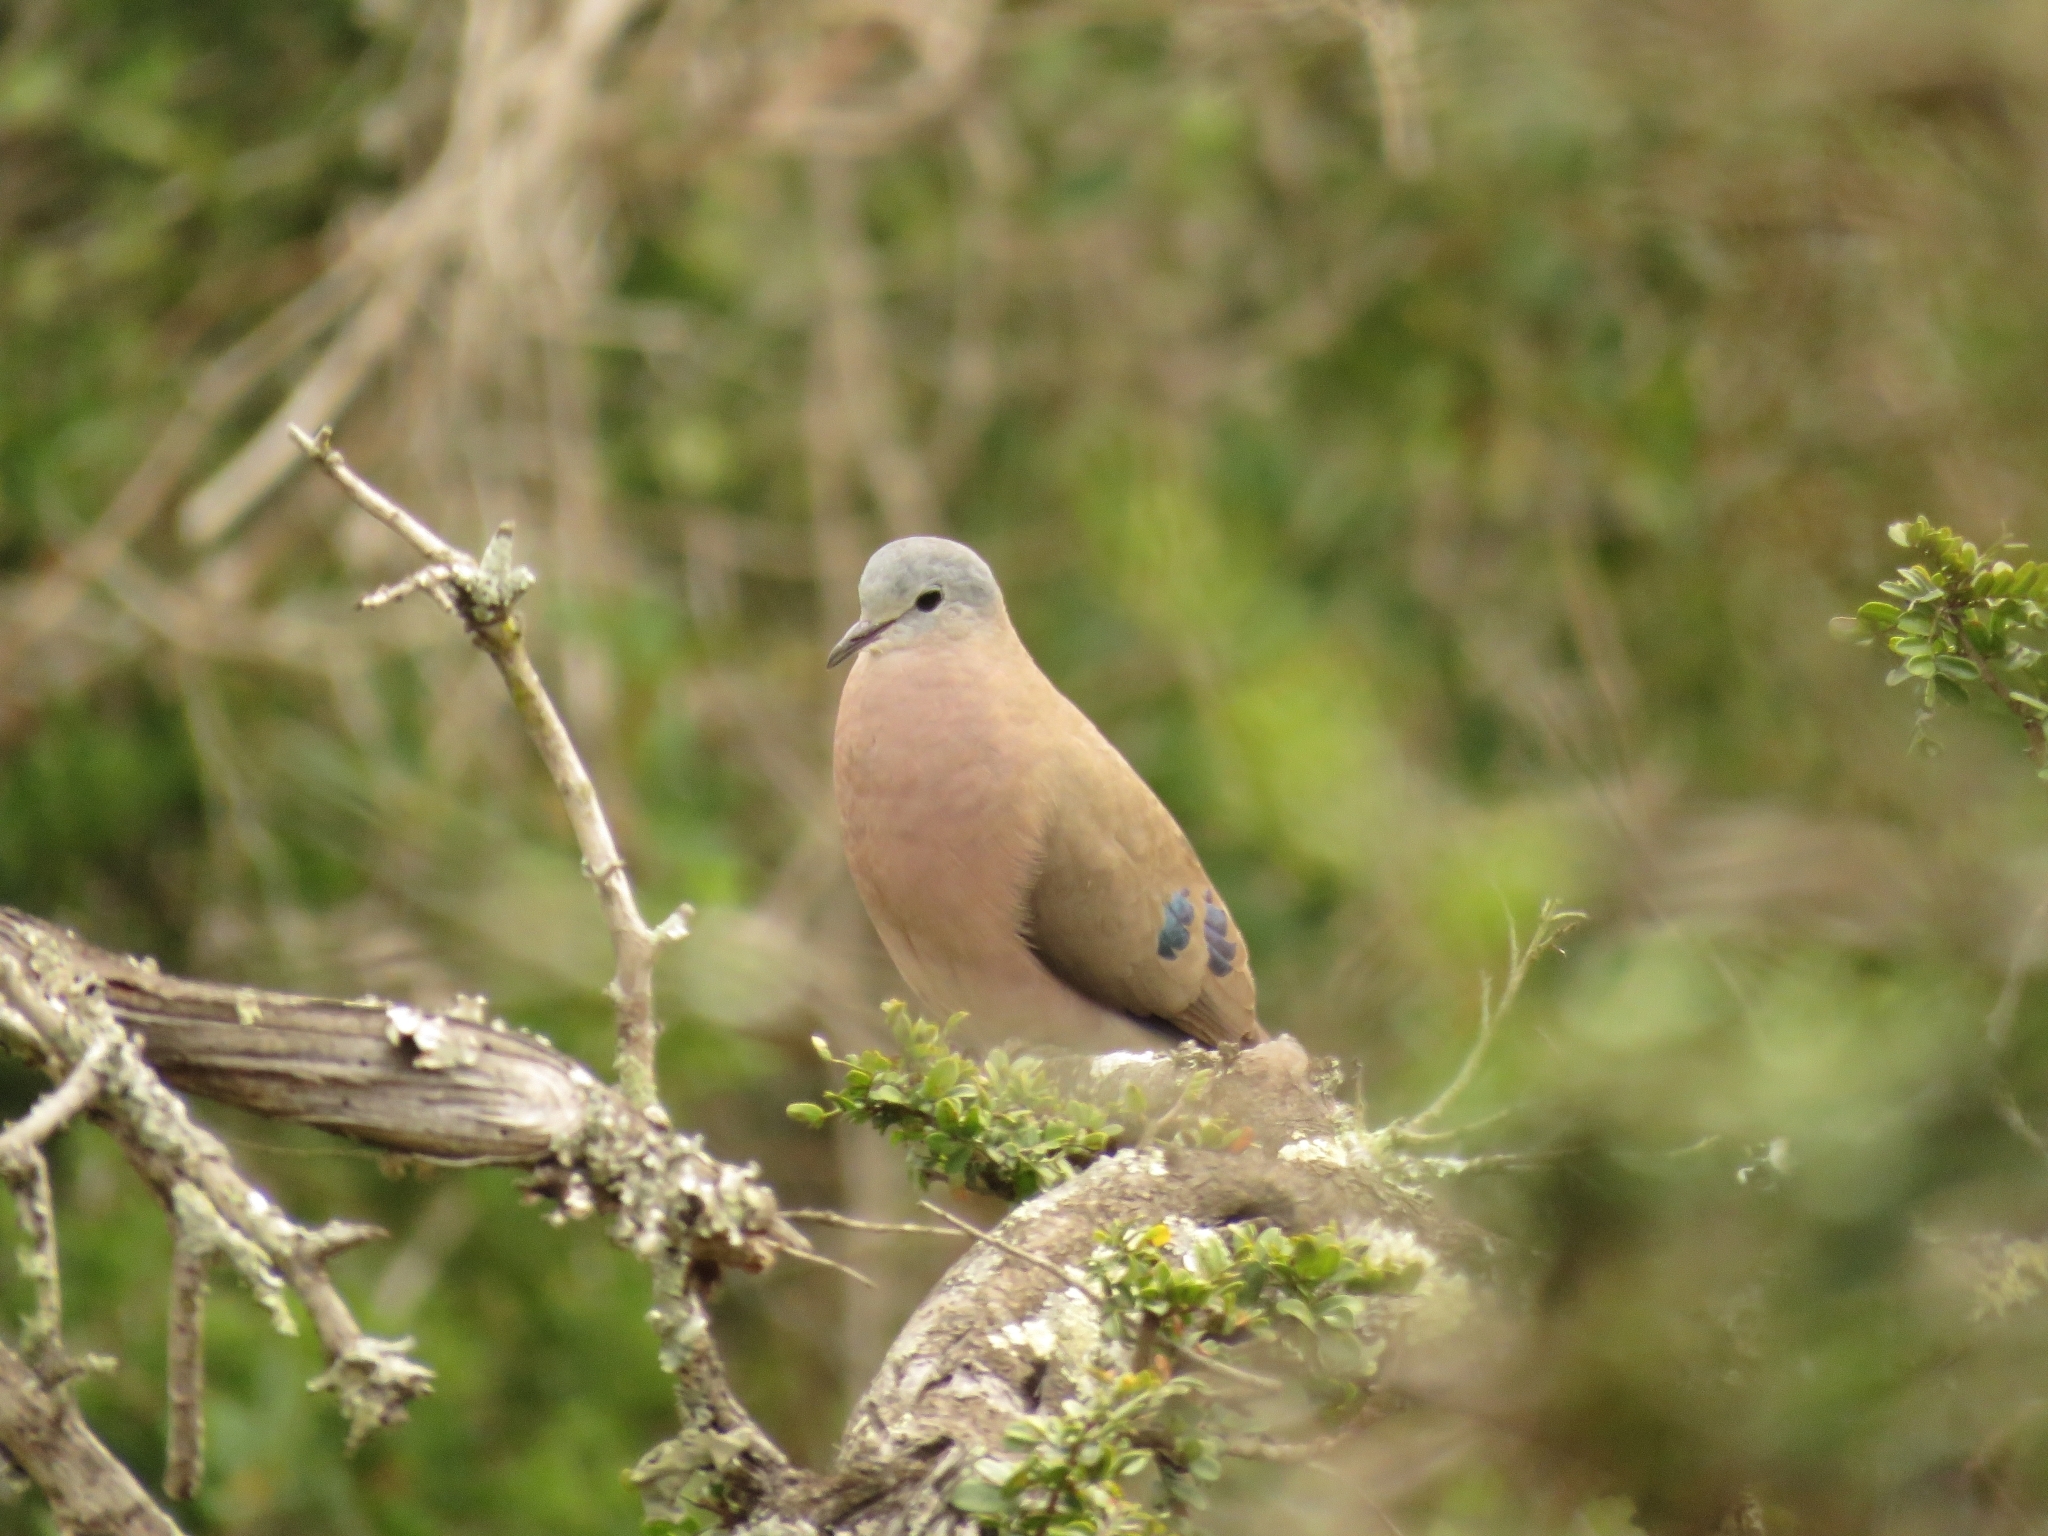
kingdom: Animalia
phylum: Chordata
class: Aves
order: Columbiformes
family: Columbidae
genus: Turtur
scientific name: Turtur chalcospilos
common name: Emerald-spotted wood dove
